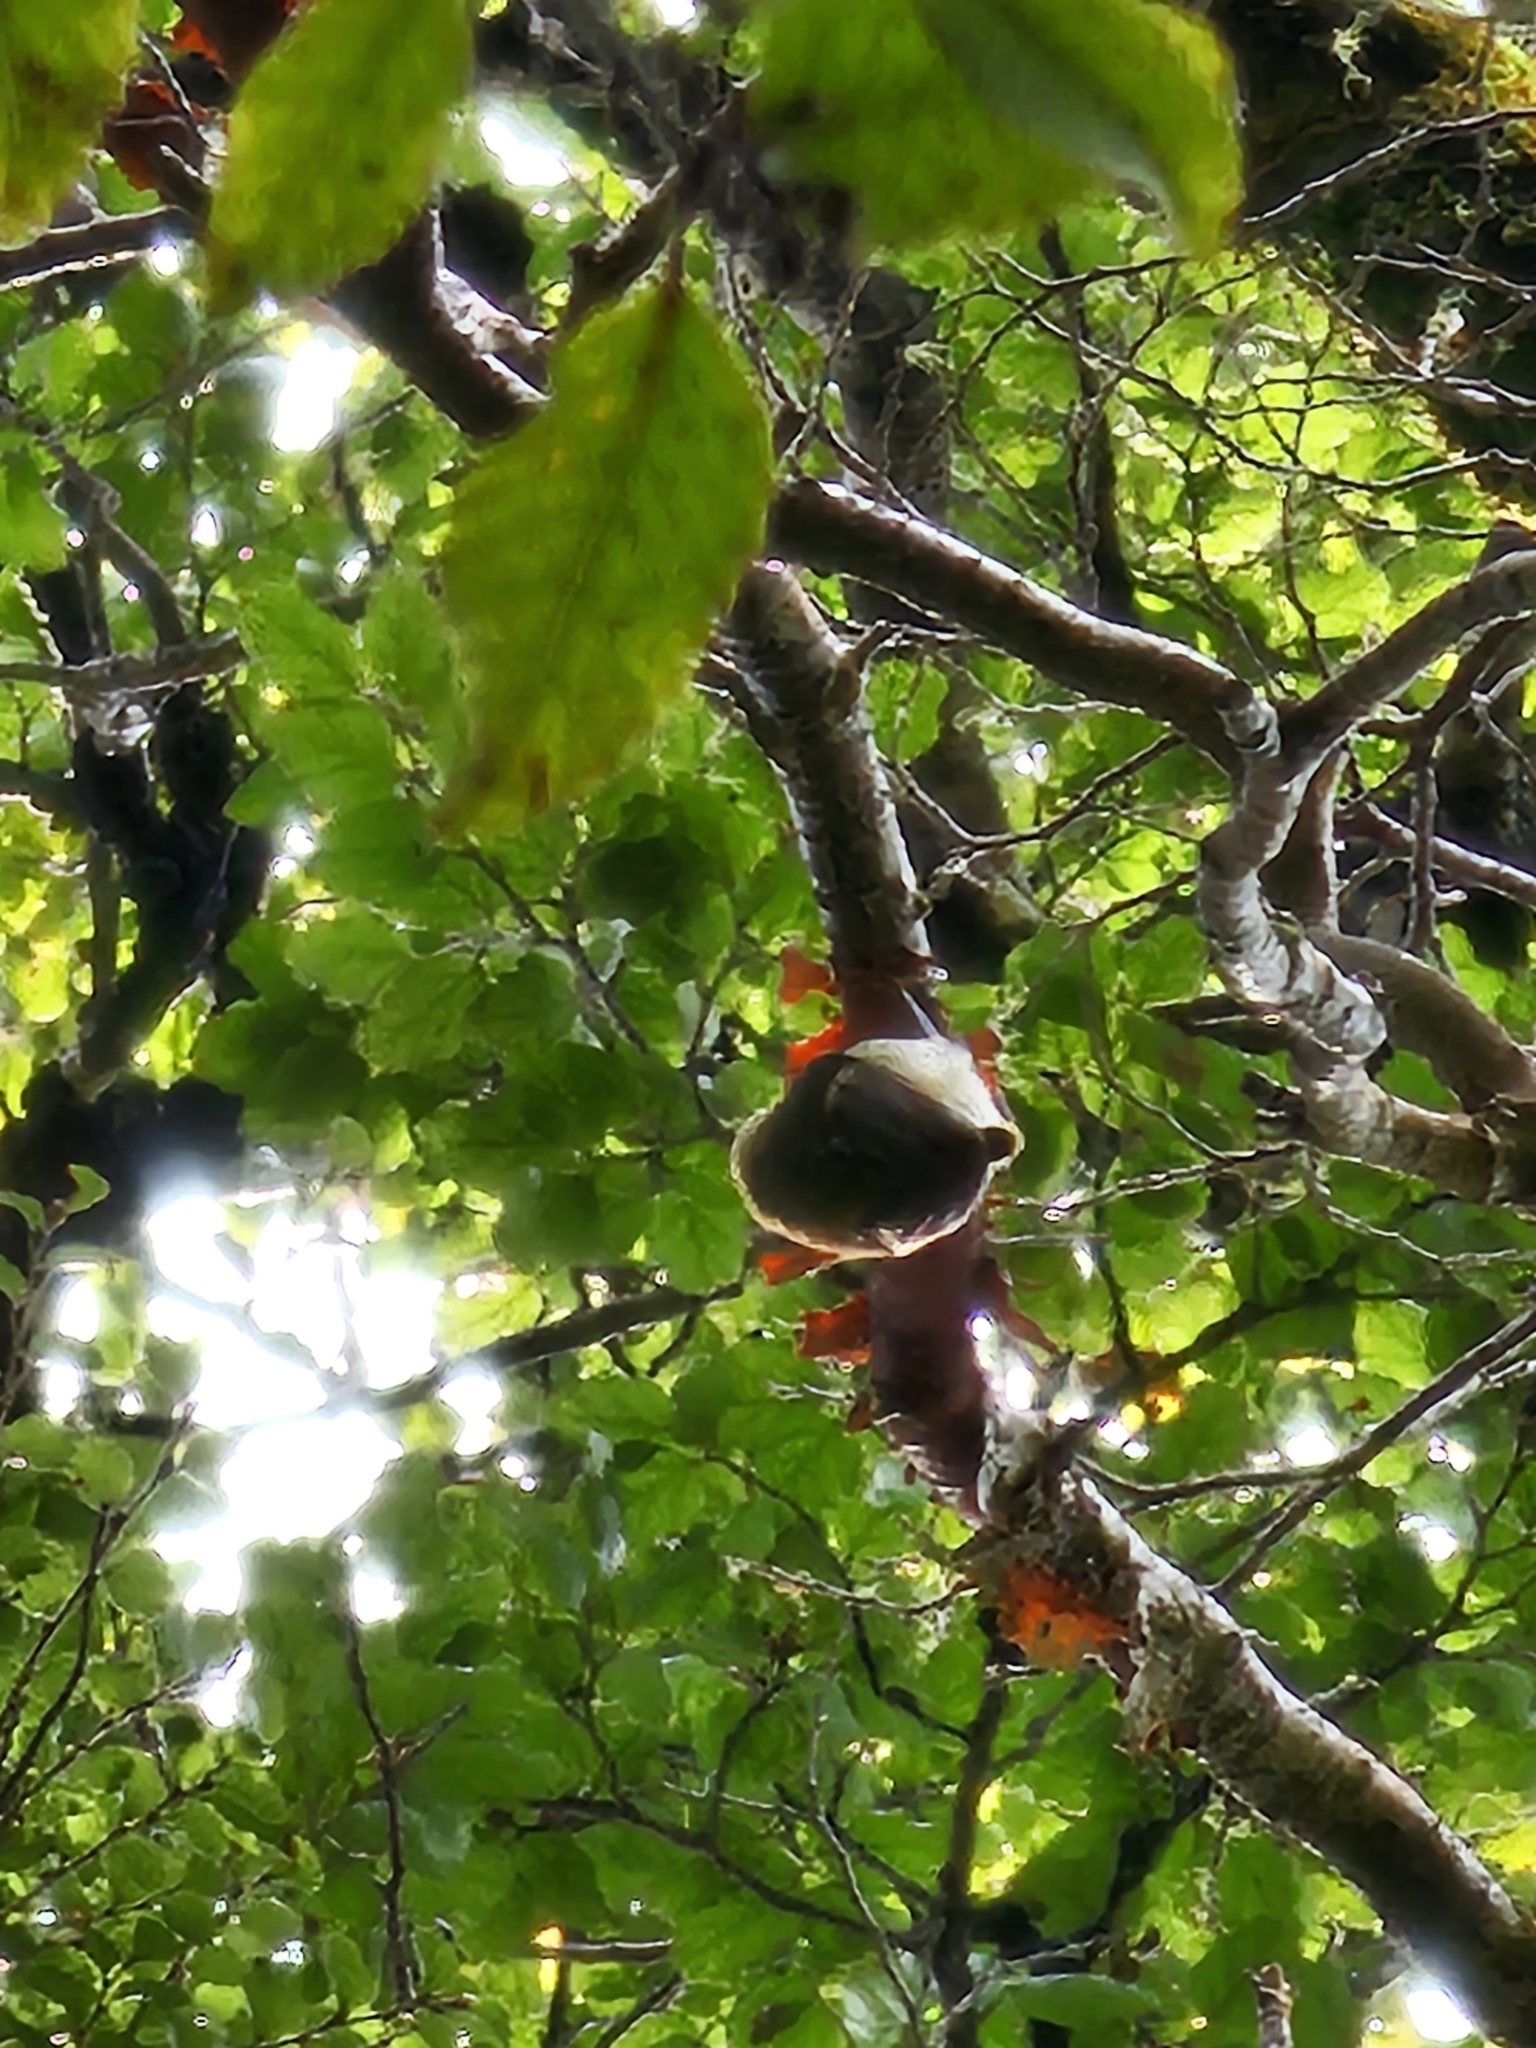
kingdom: Animalia
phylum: Chordata
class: Aves
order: Passeriformes
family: Acanthisittidae
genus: Acanthisitta
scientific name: Acanthisitta chloris
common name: Rifleman
